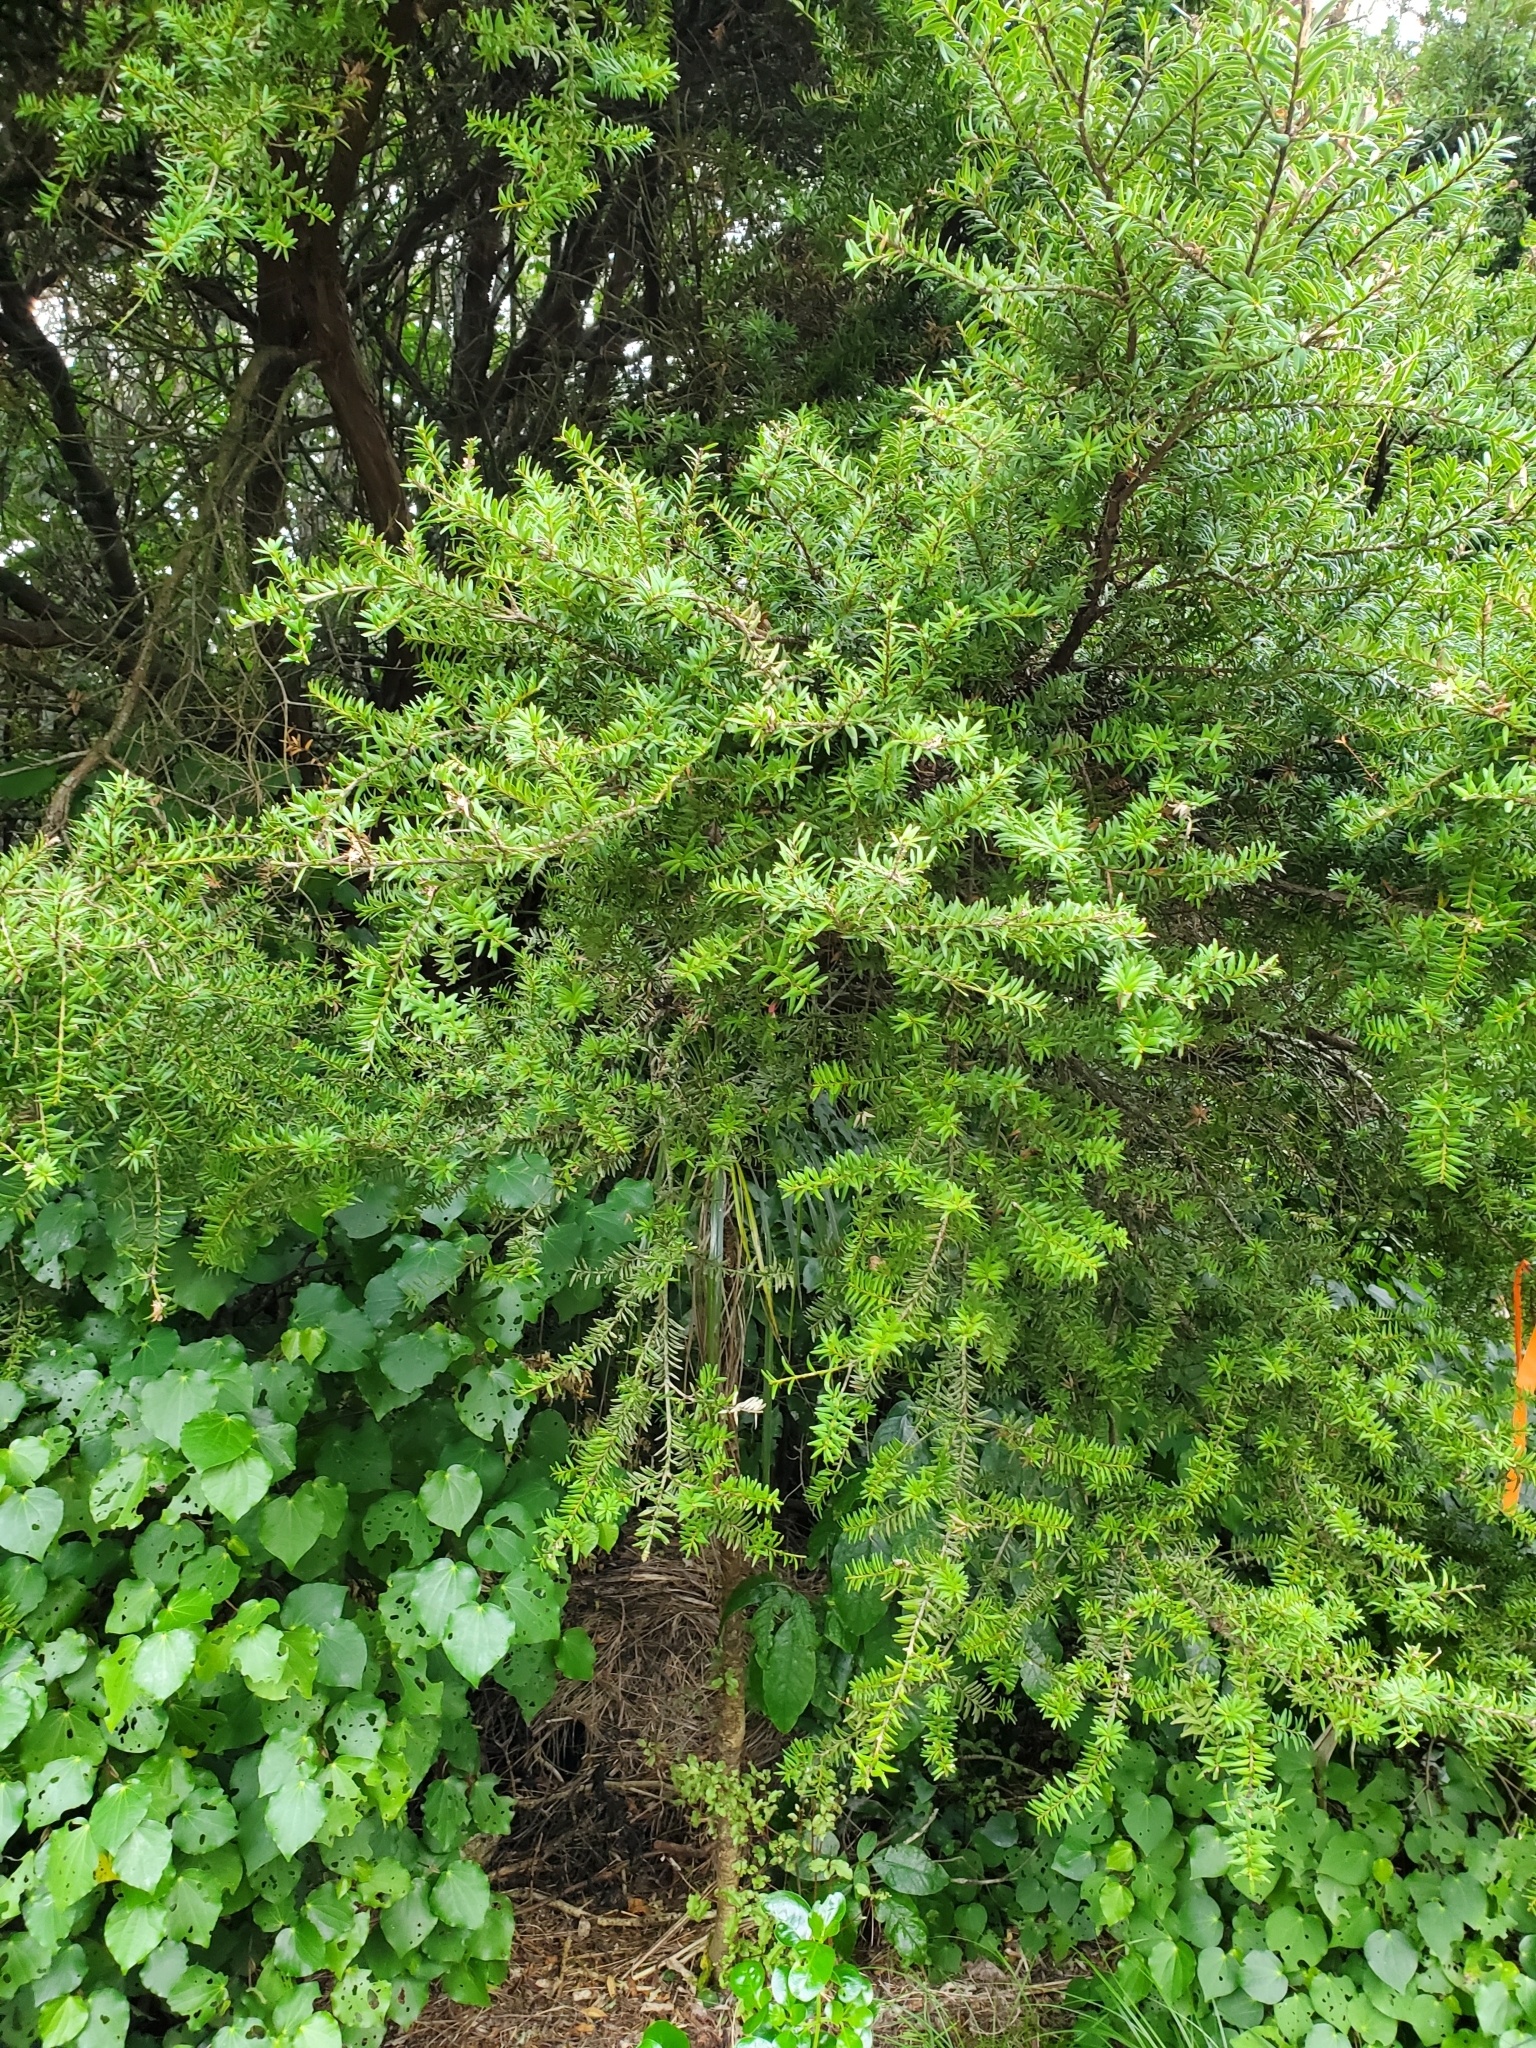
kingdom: Plantae
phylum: Tracheophyta
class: Pinopsida
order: Pinales
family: Podocarpaceae
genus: Podocarpus
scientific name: Podocarpus totara
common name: Totara
